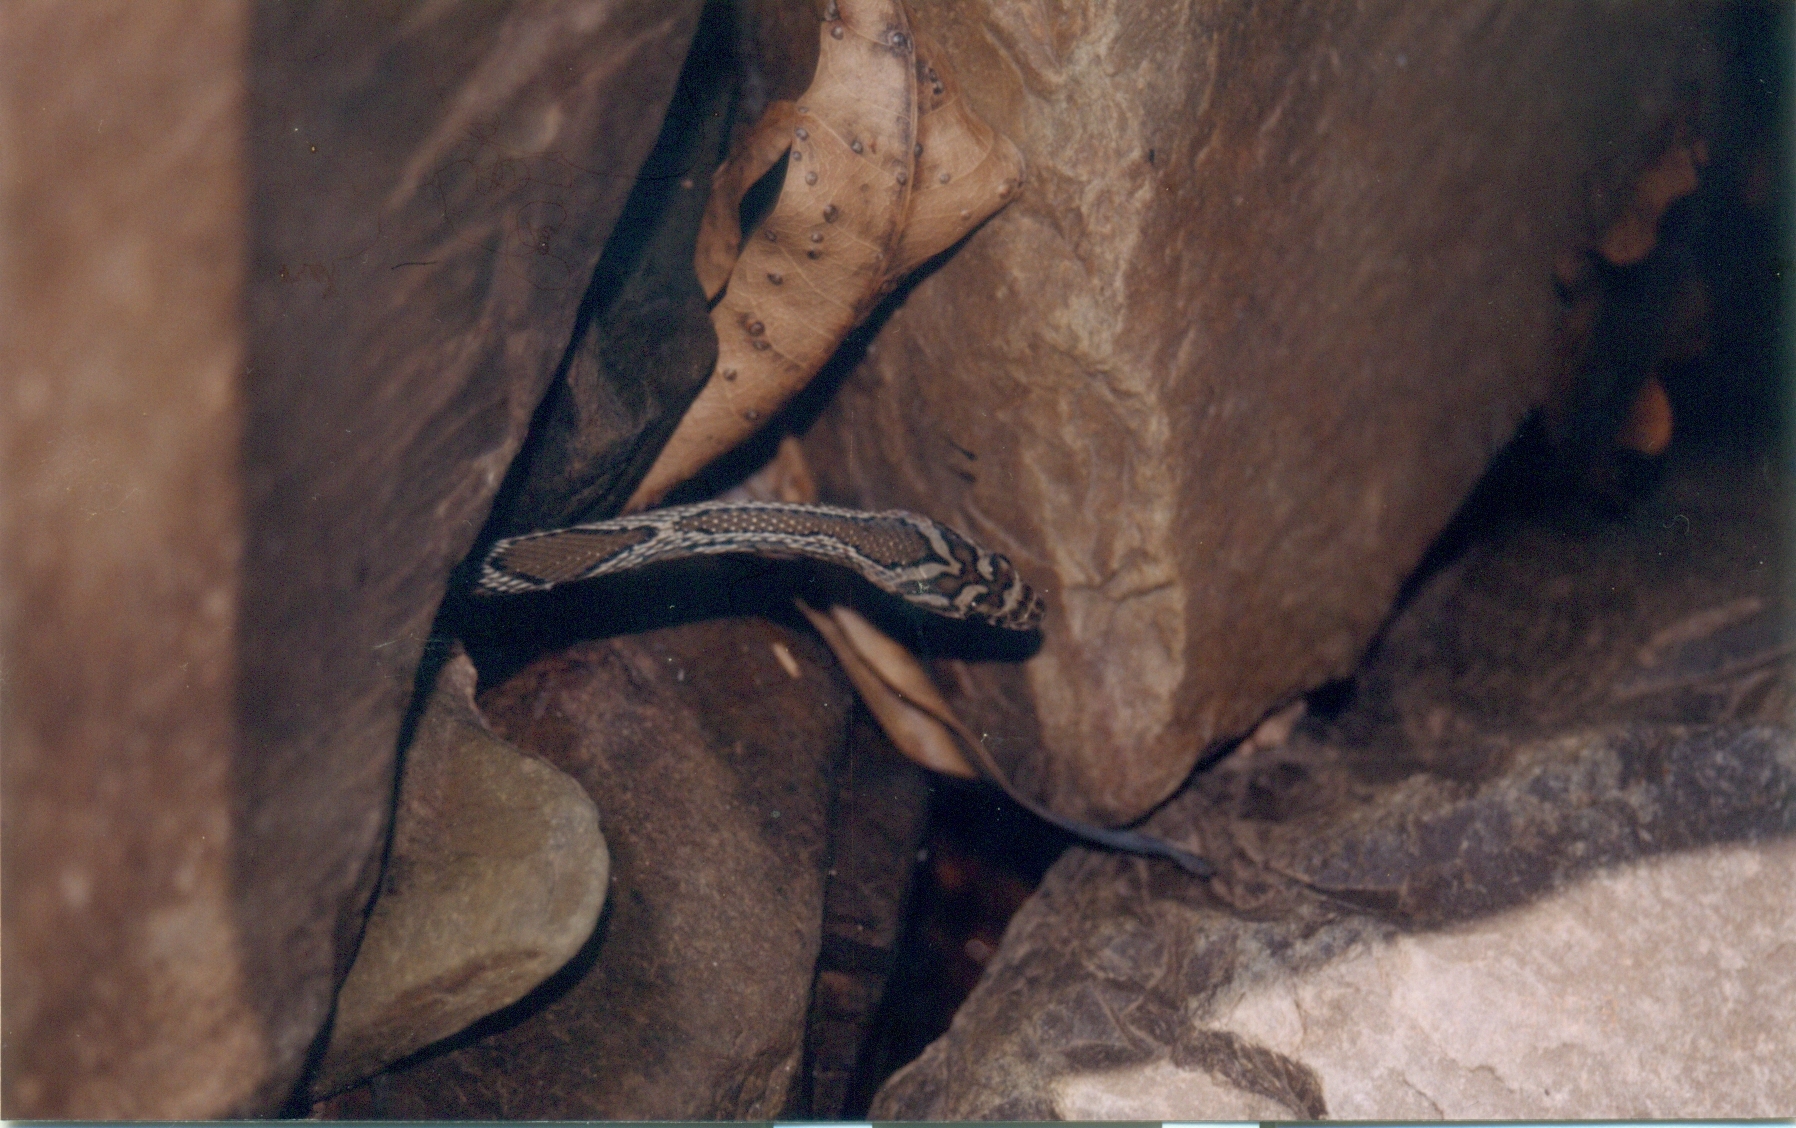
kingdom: Animalia
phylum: Chordata
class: Squamata
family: Colubridae
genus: Platyceps
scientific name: Platyceps bholanathi
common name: Nagarjunasagar racer
